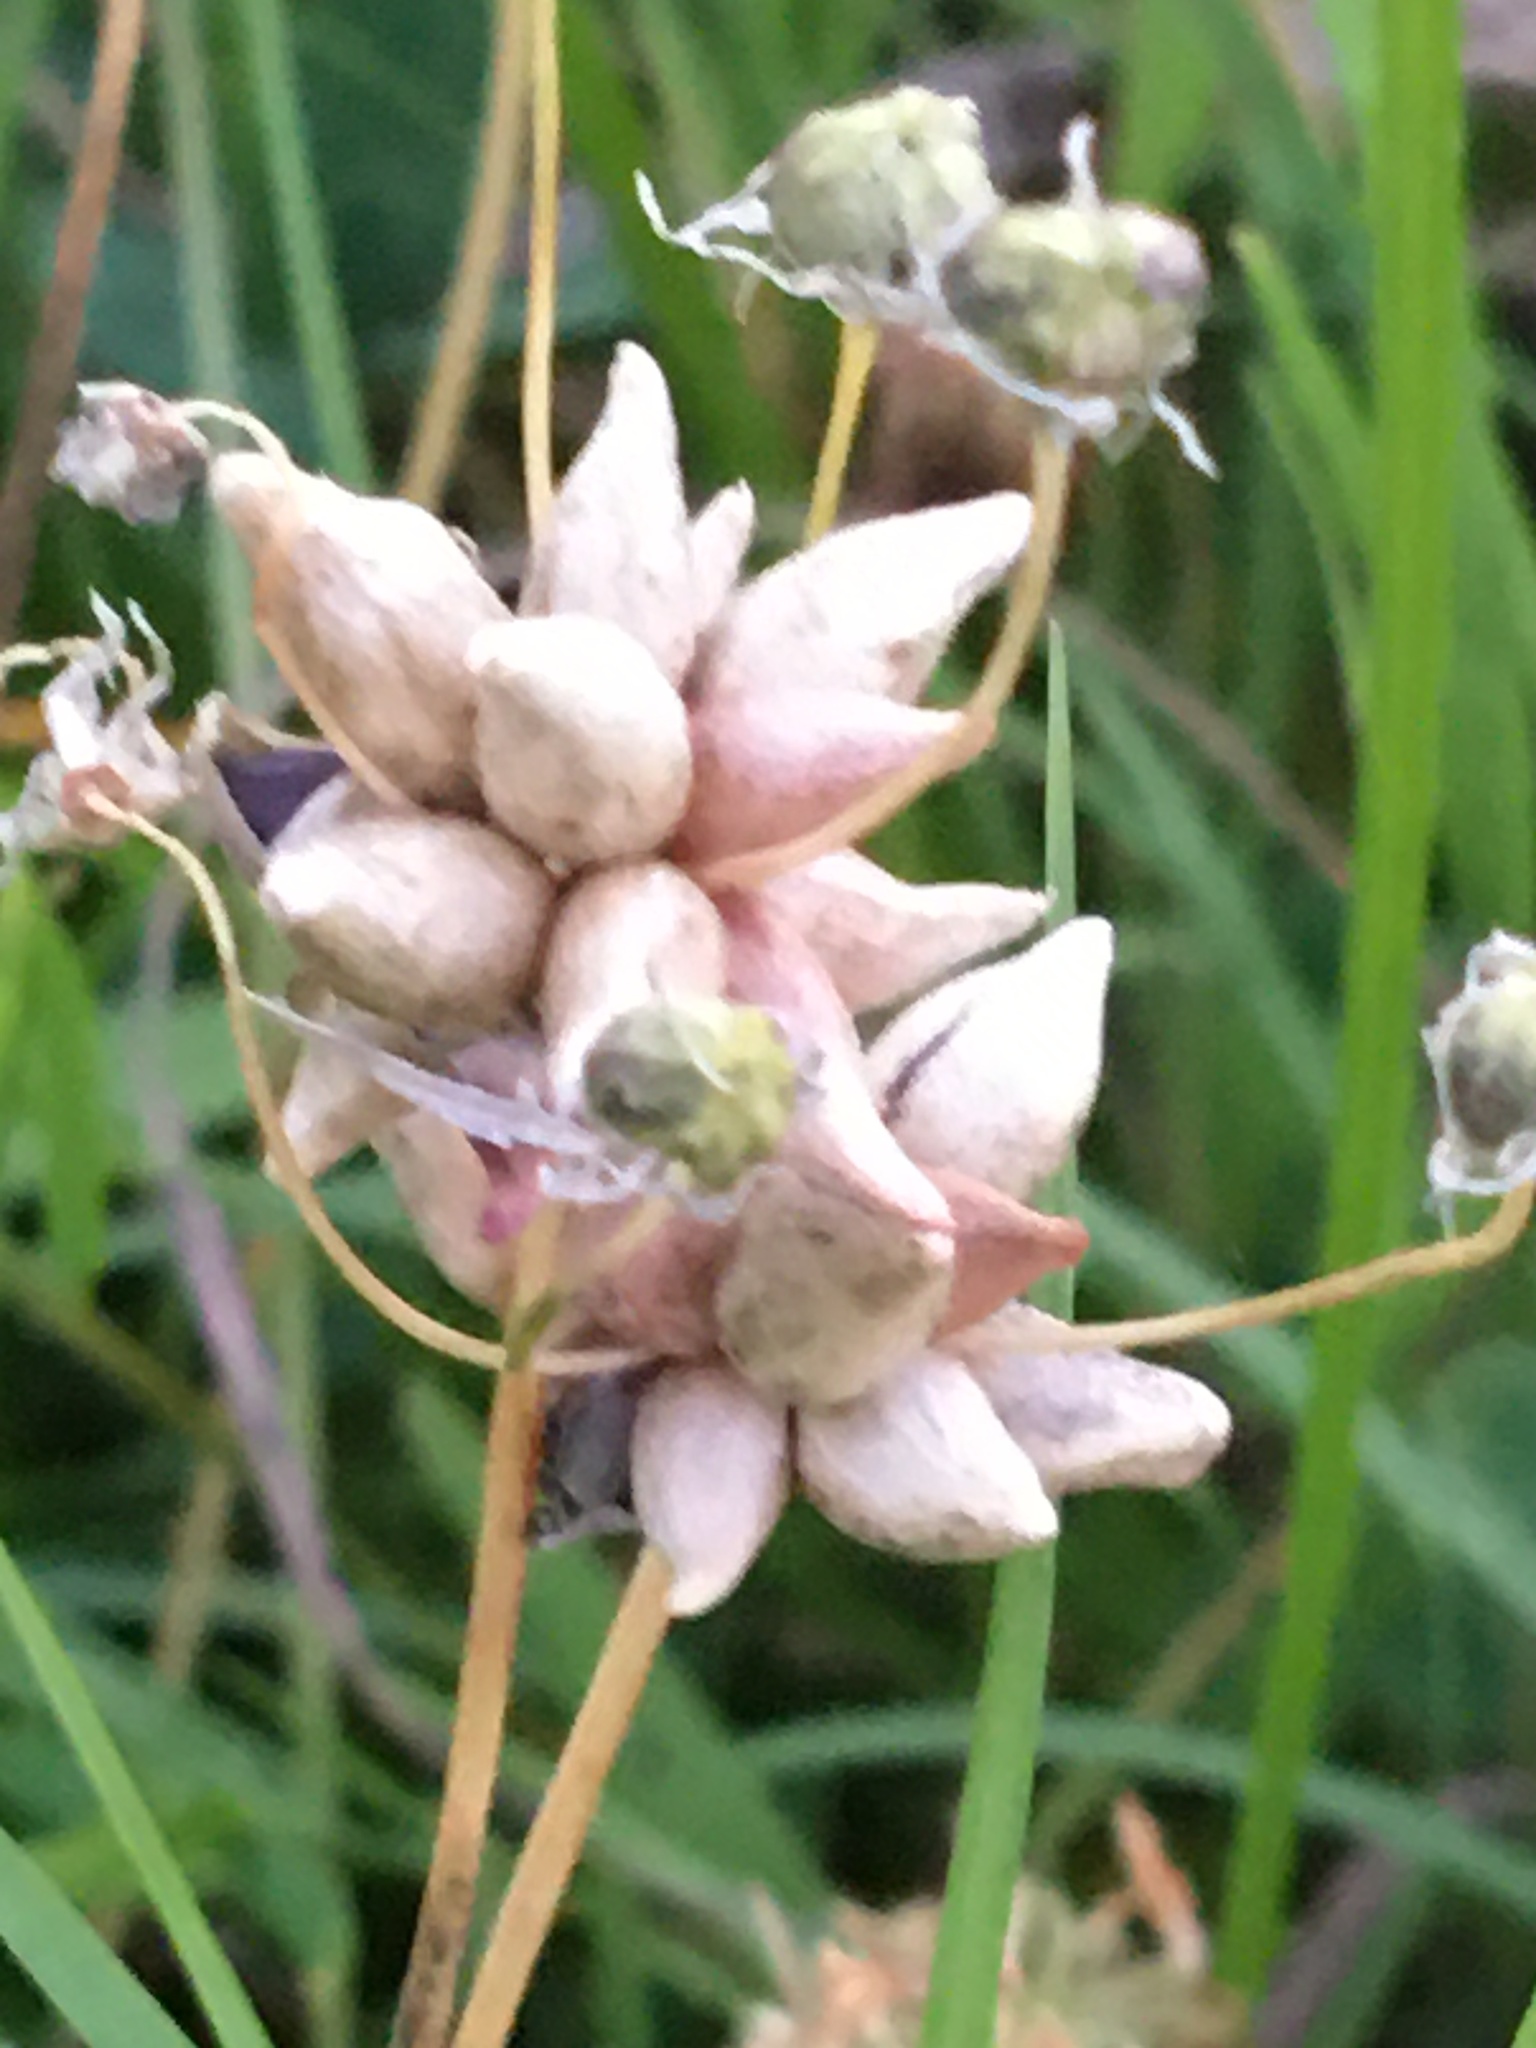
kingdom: Plantae
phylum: Tracheophyta
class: Liliopsida
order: Asparagales
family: Amaryllidaceae
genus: Allium
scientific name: Allium canadense
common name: Meadow garlic
